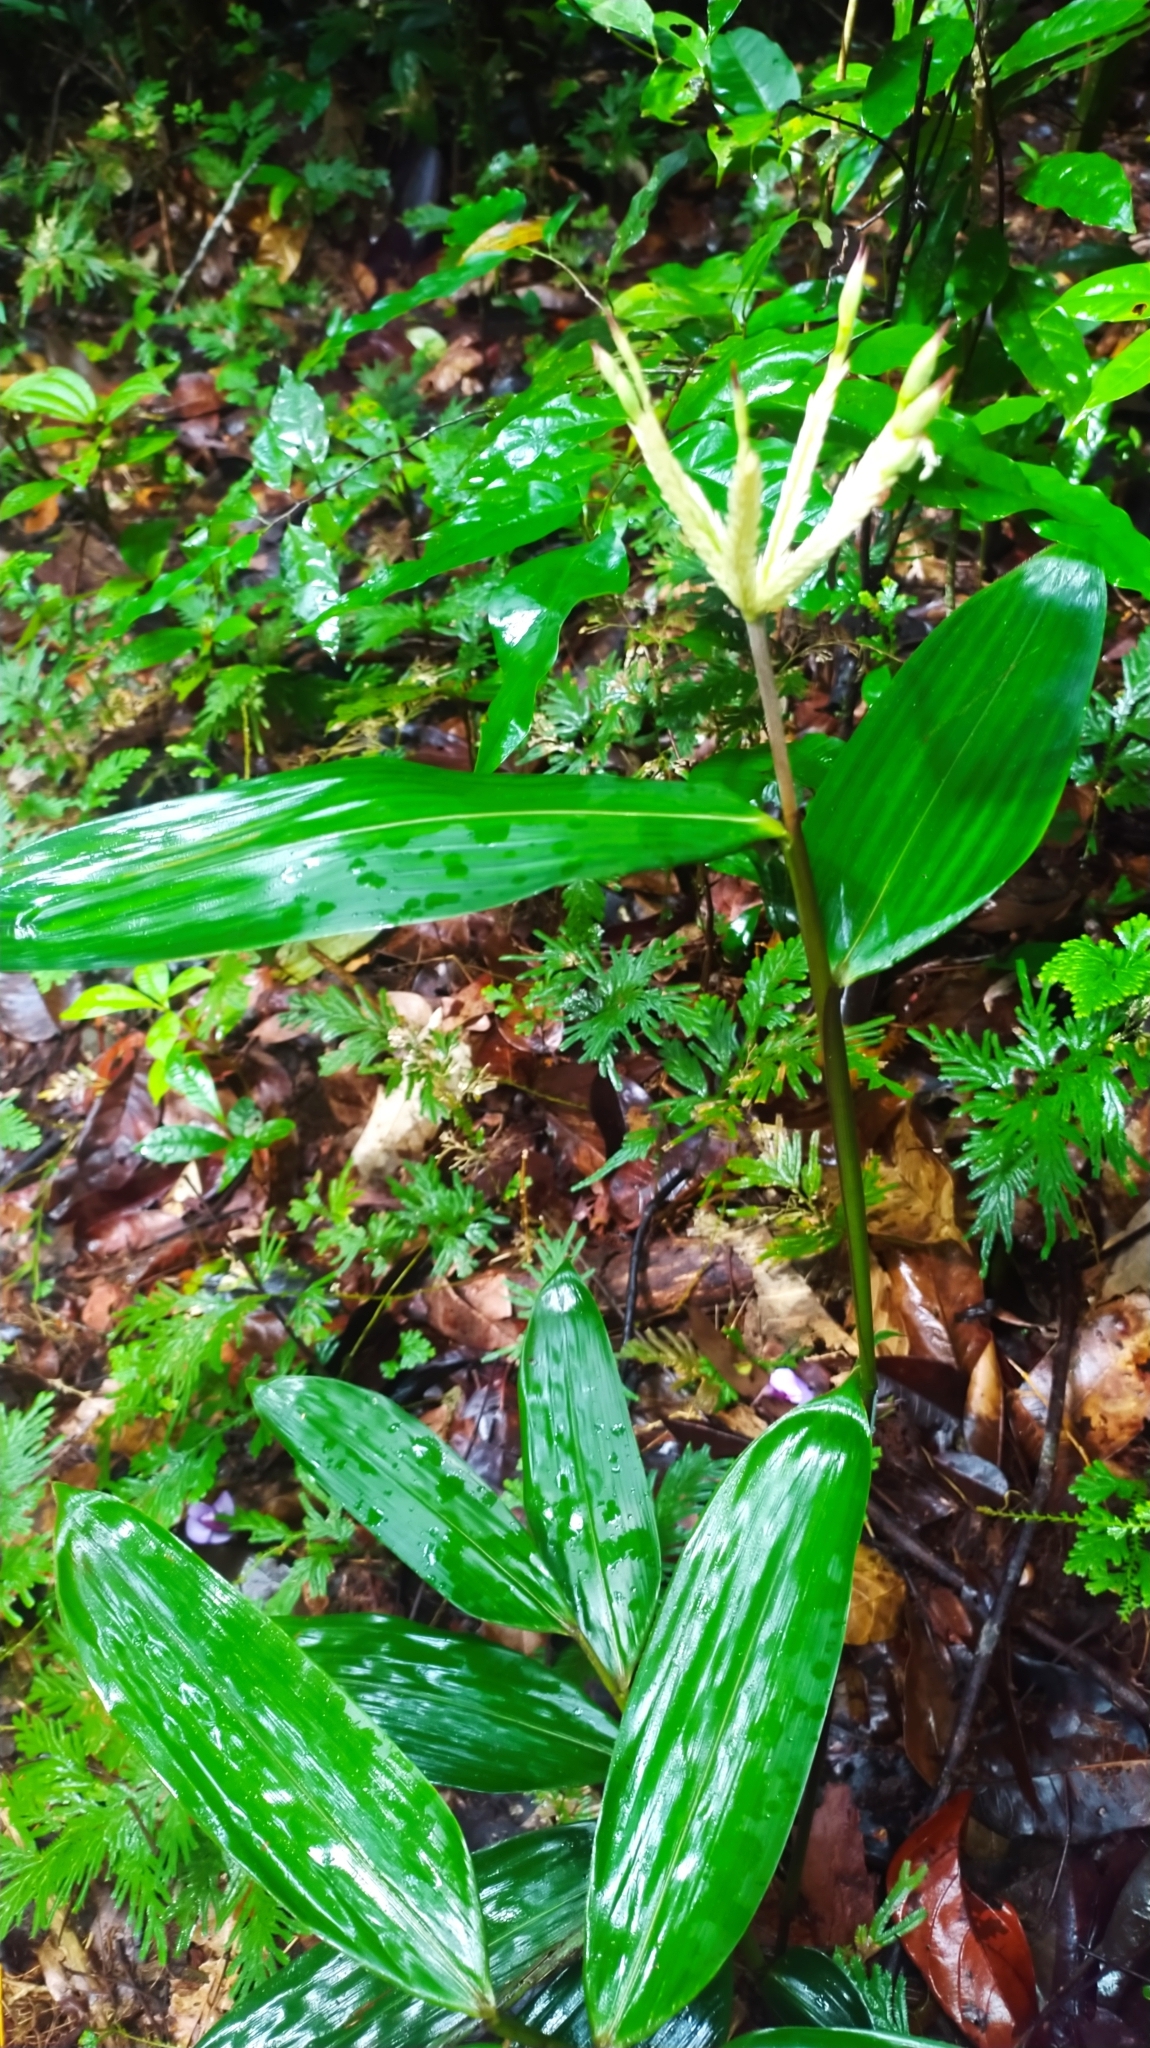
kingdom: Plantae
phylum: Tracheophyta
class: Liliopsida
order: Poales
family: Poaceae
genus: Olyra
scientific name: Olyra obliquifolia
